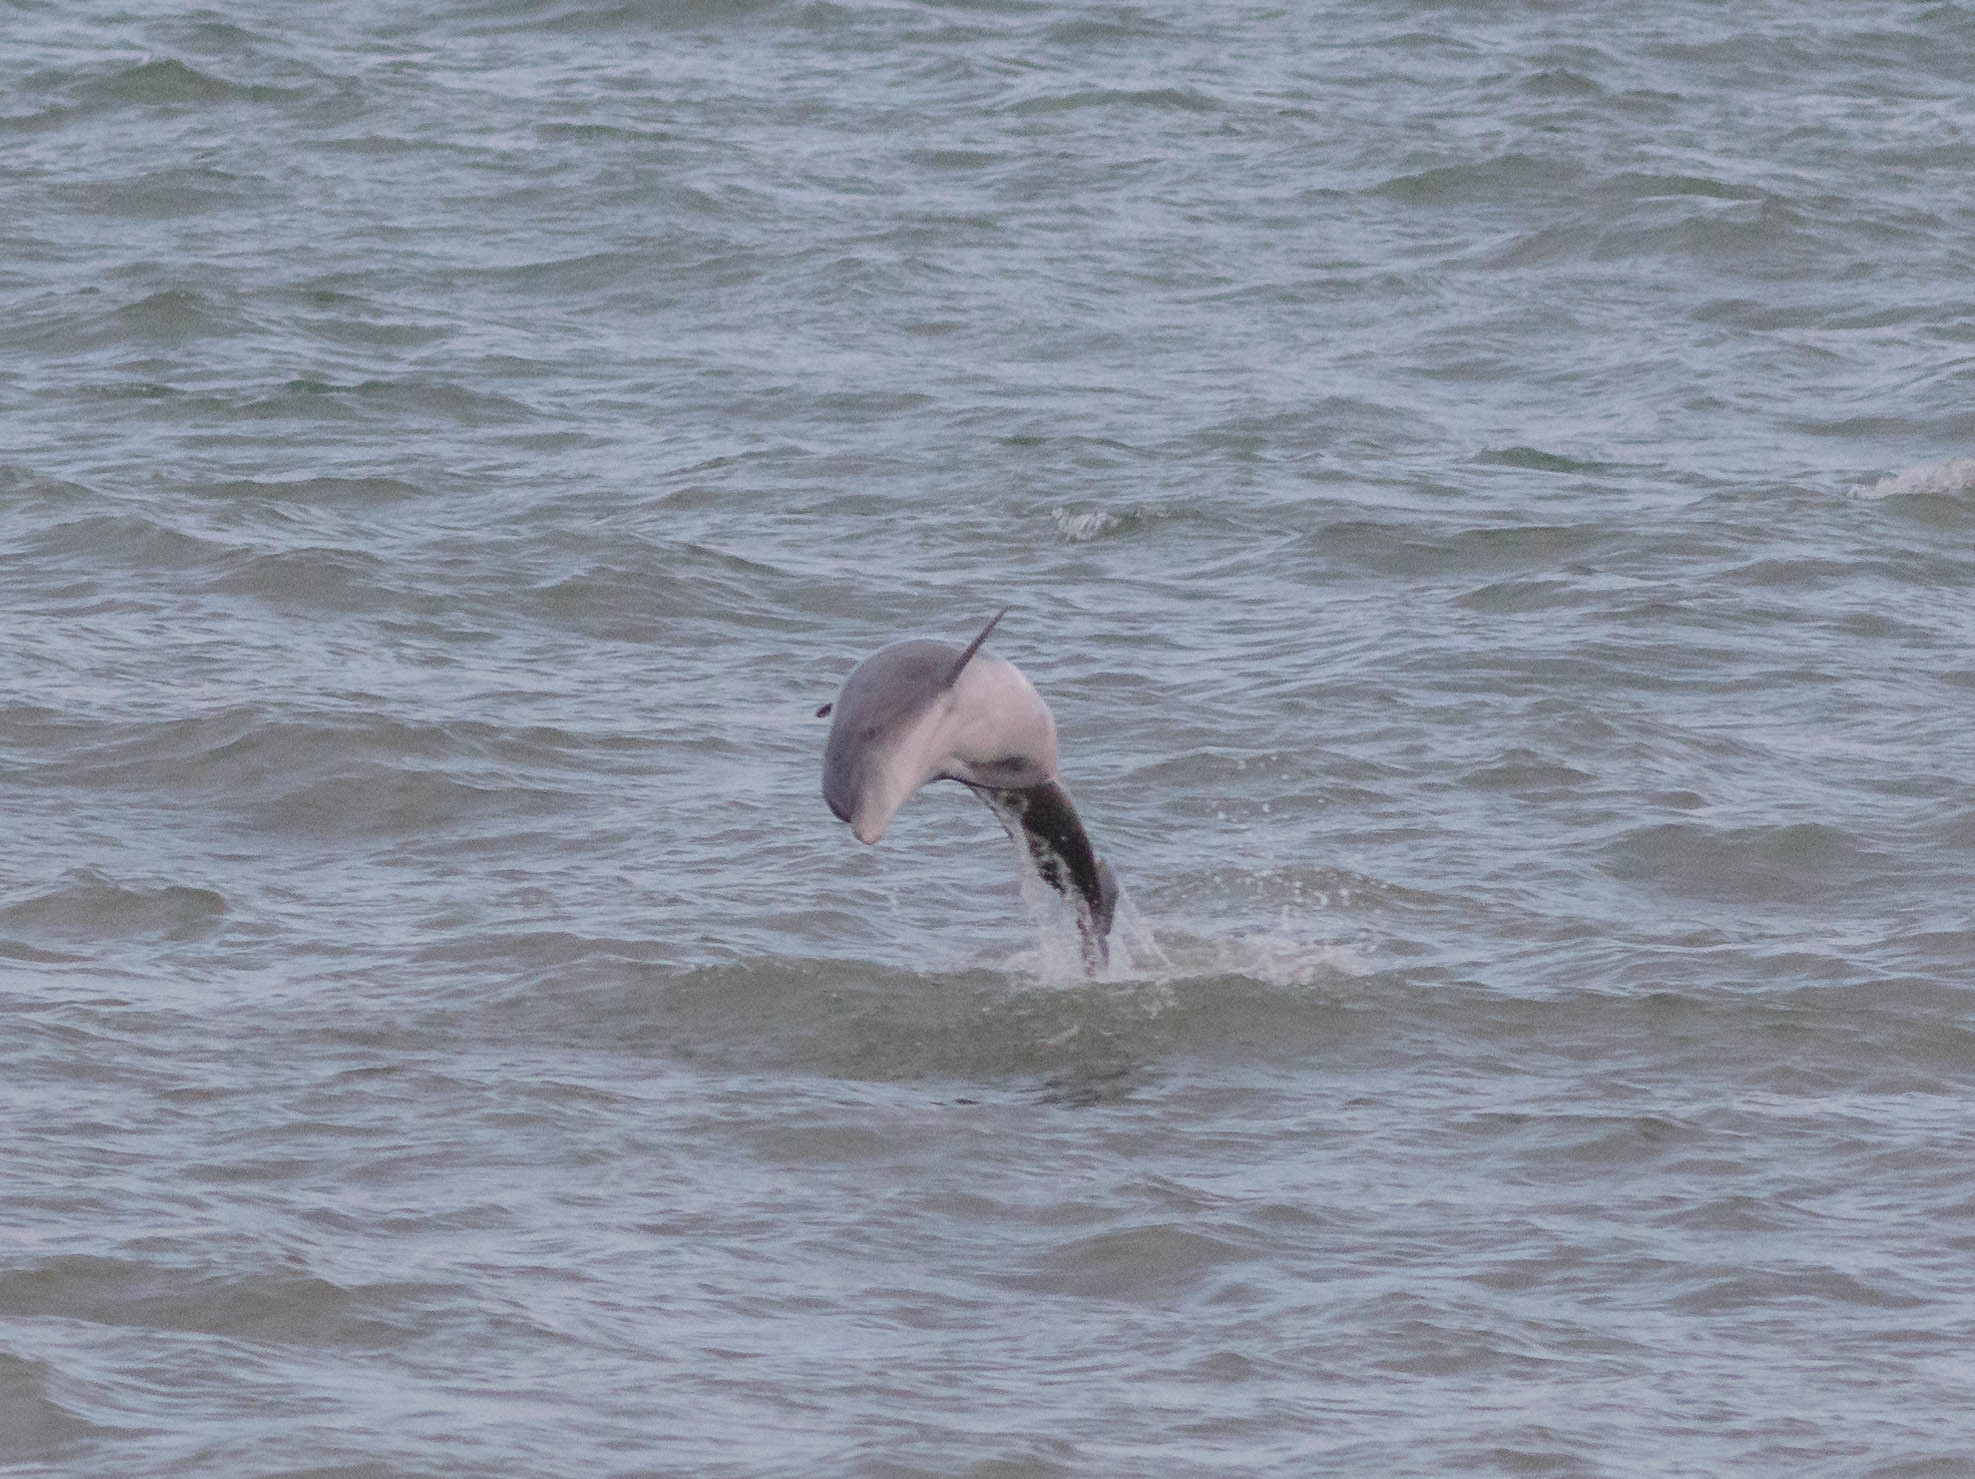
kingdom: Animalia
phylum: Chordata
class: Mammalia
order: Cetacea
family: Delphinidae
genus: Tursiops
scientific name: Tursiops truncatus
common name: Bottlenose dolphin
